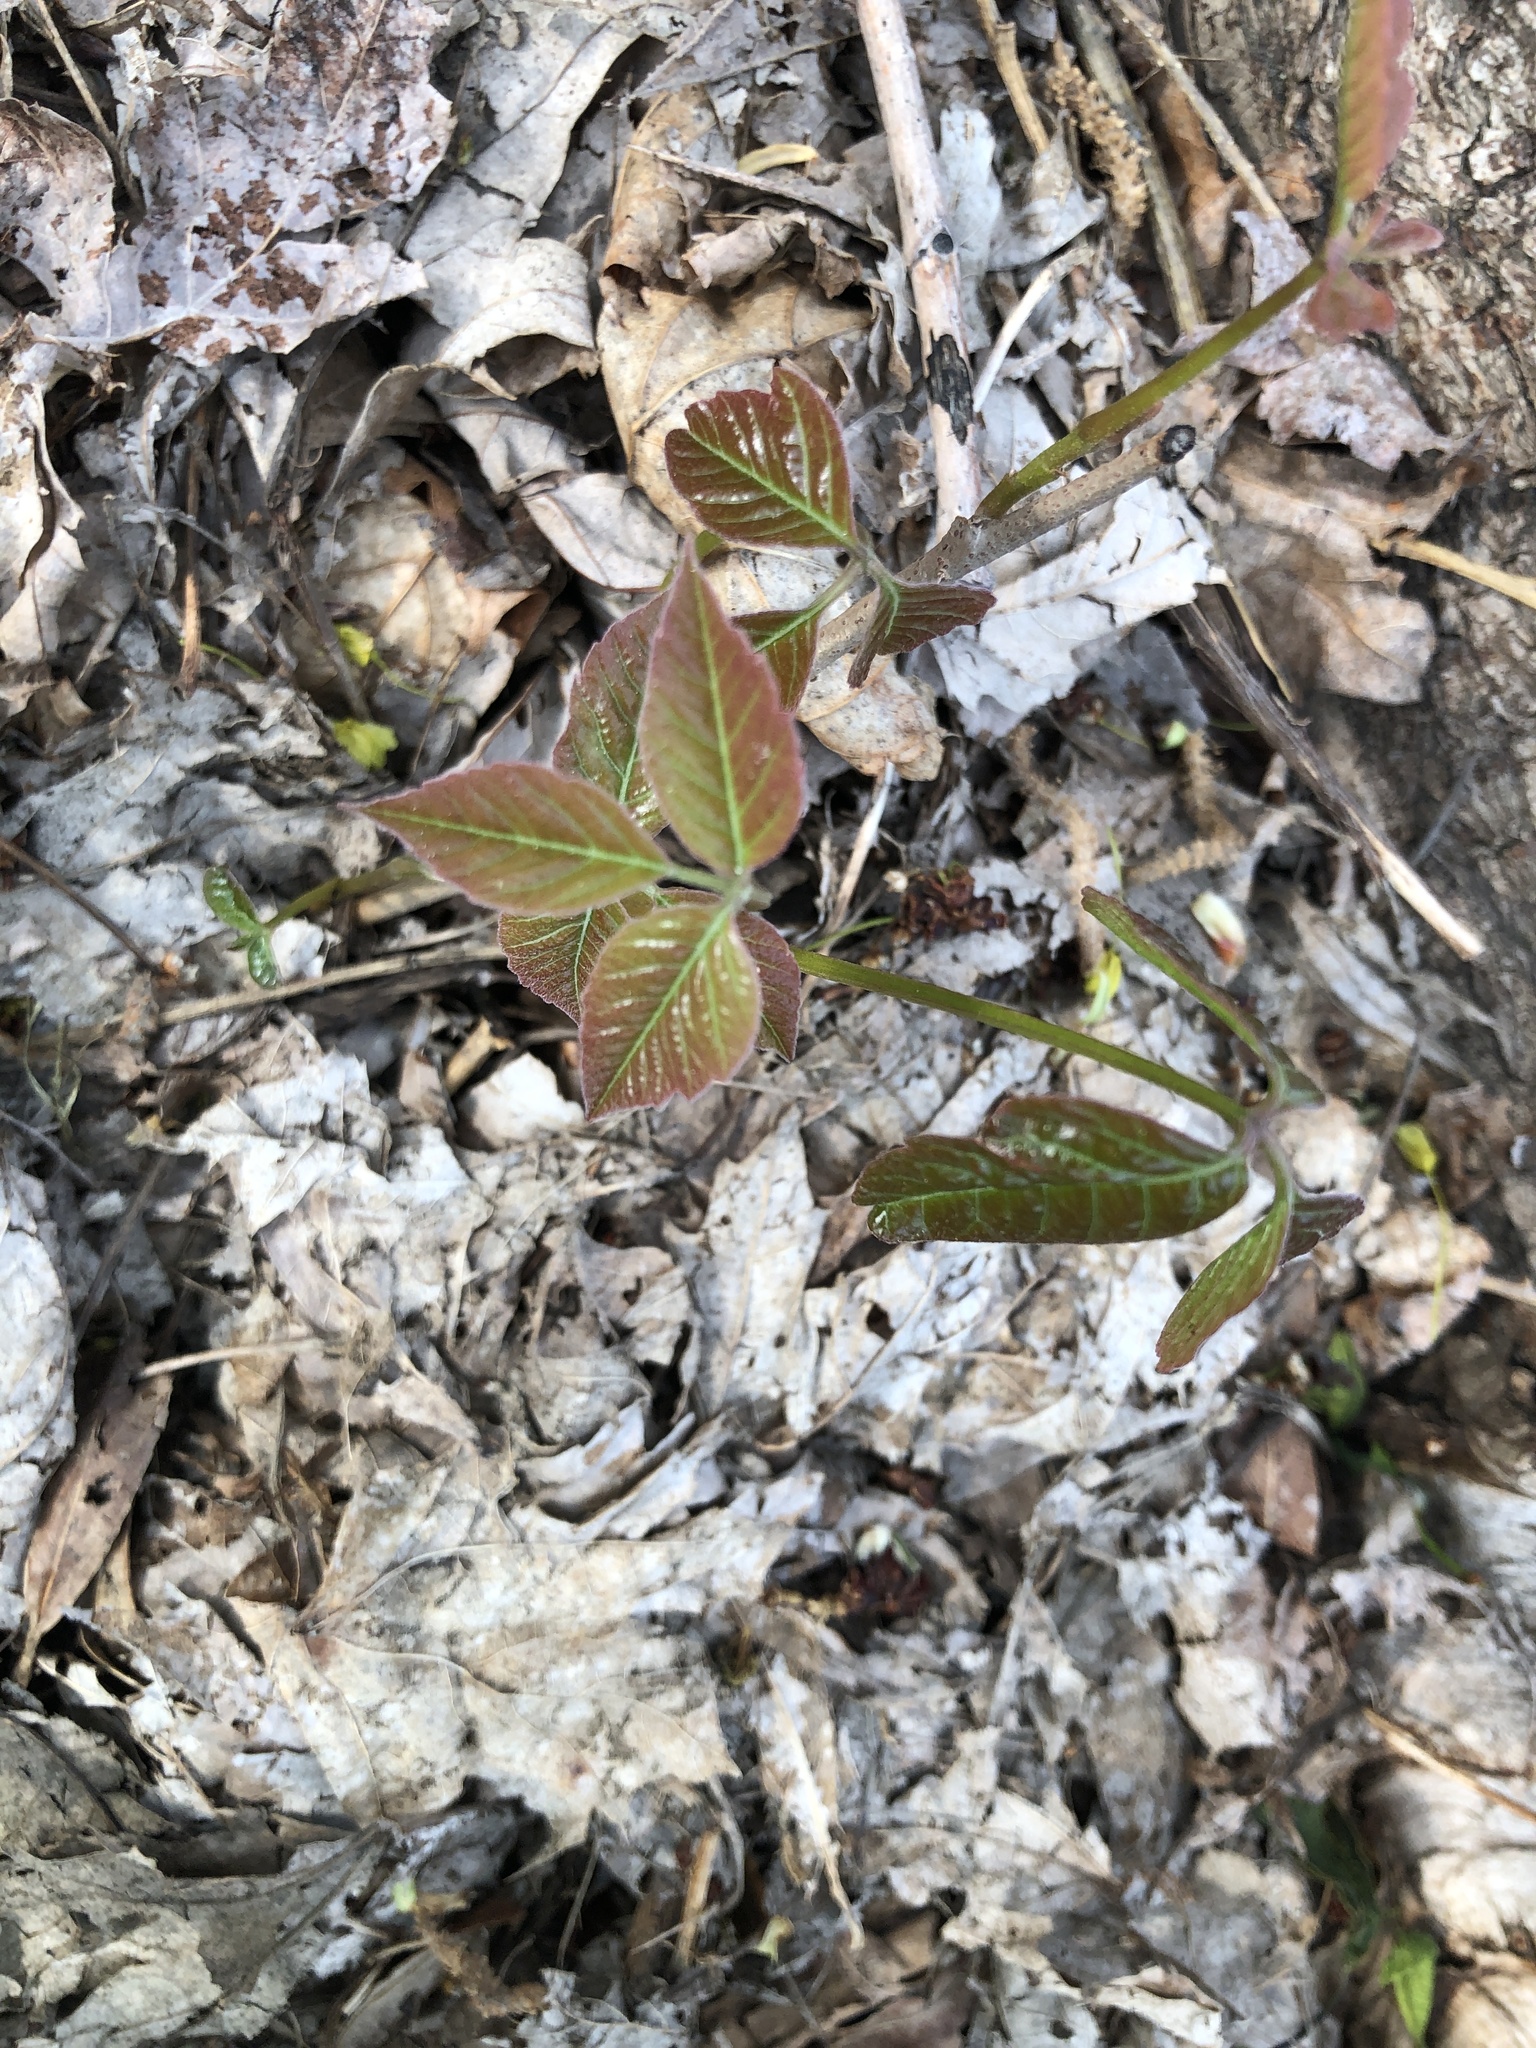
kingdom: Plantae
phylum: Tracheophyta
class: Magnoliopsida
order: Sapindales
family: Anacardiaceae
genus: Toxicodendron
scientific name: Toxicodendron radicans
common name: Poison ivy
